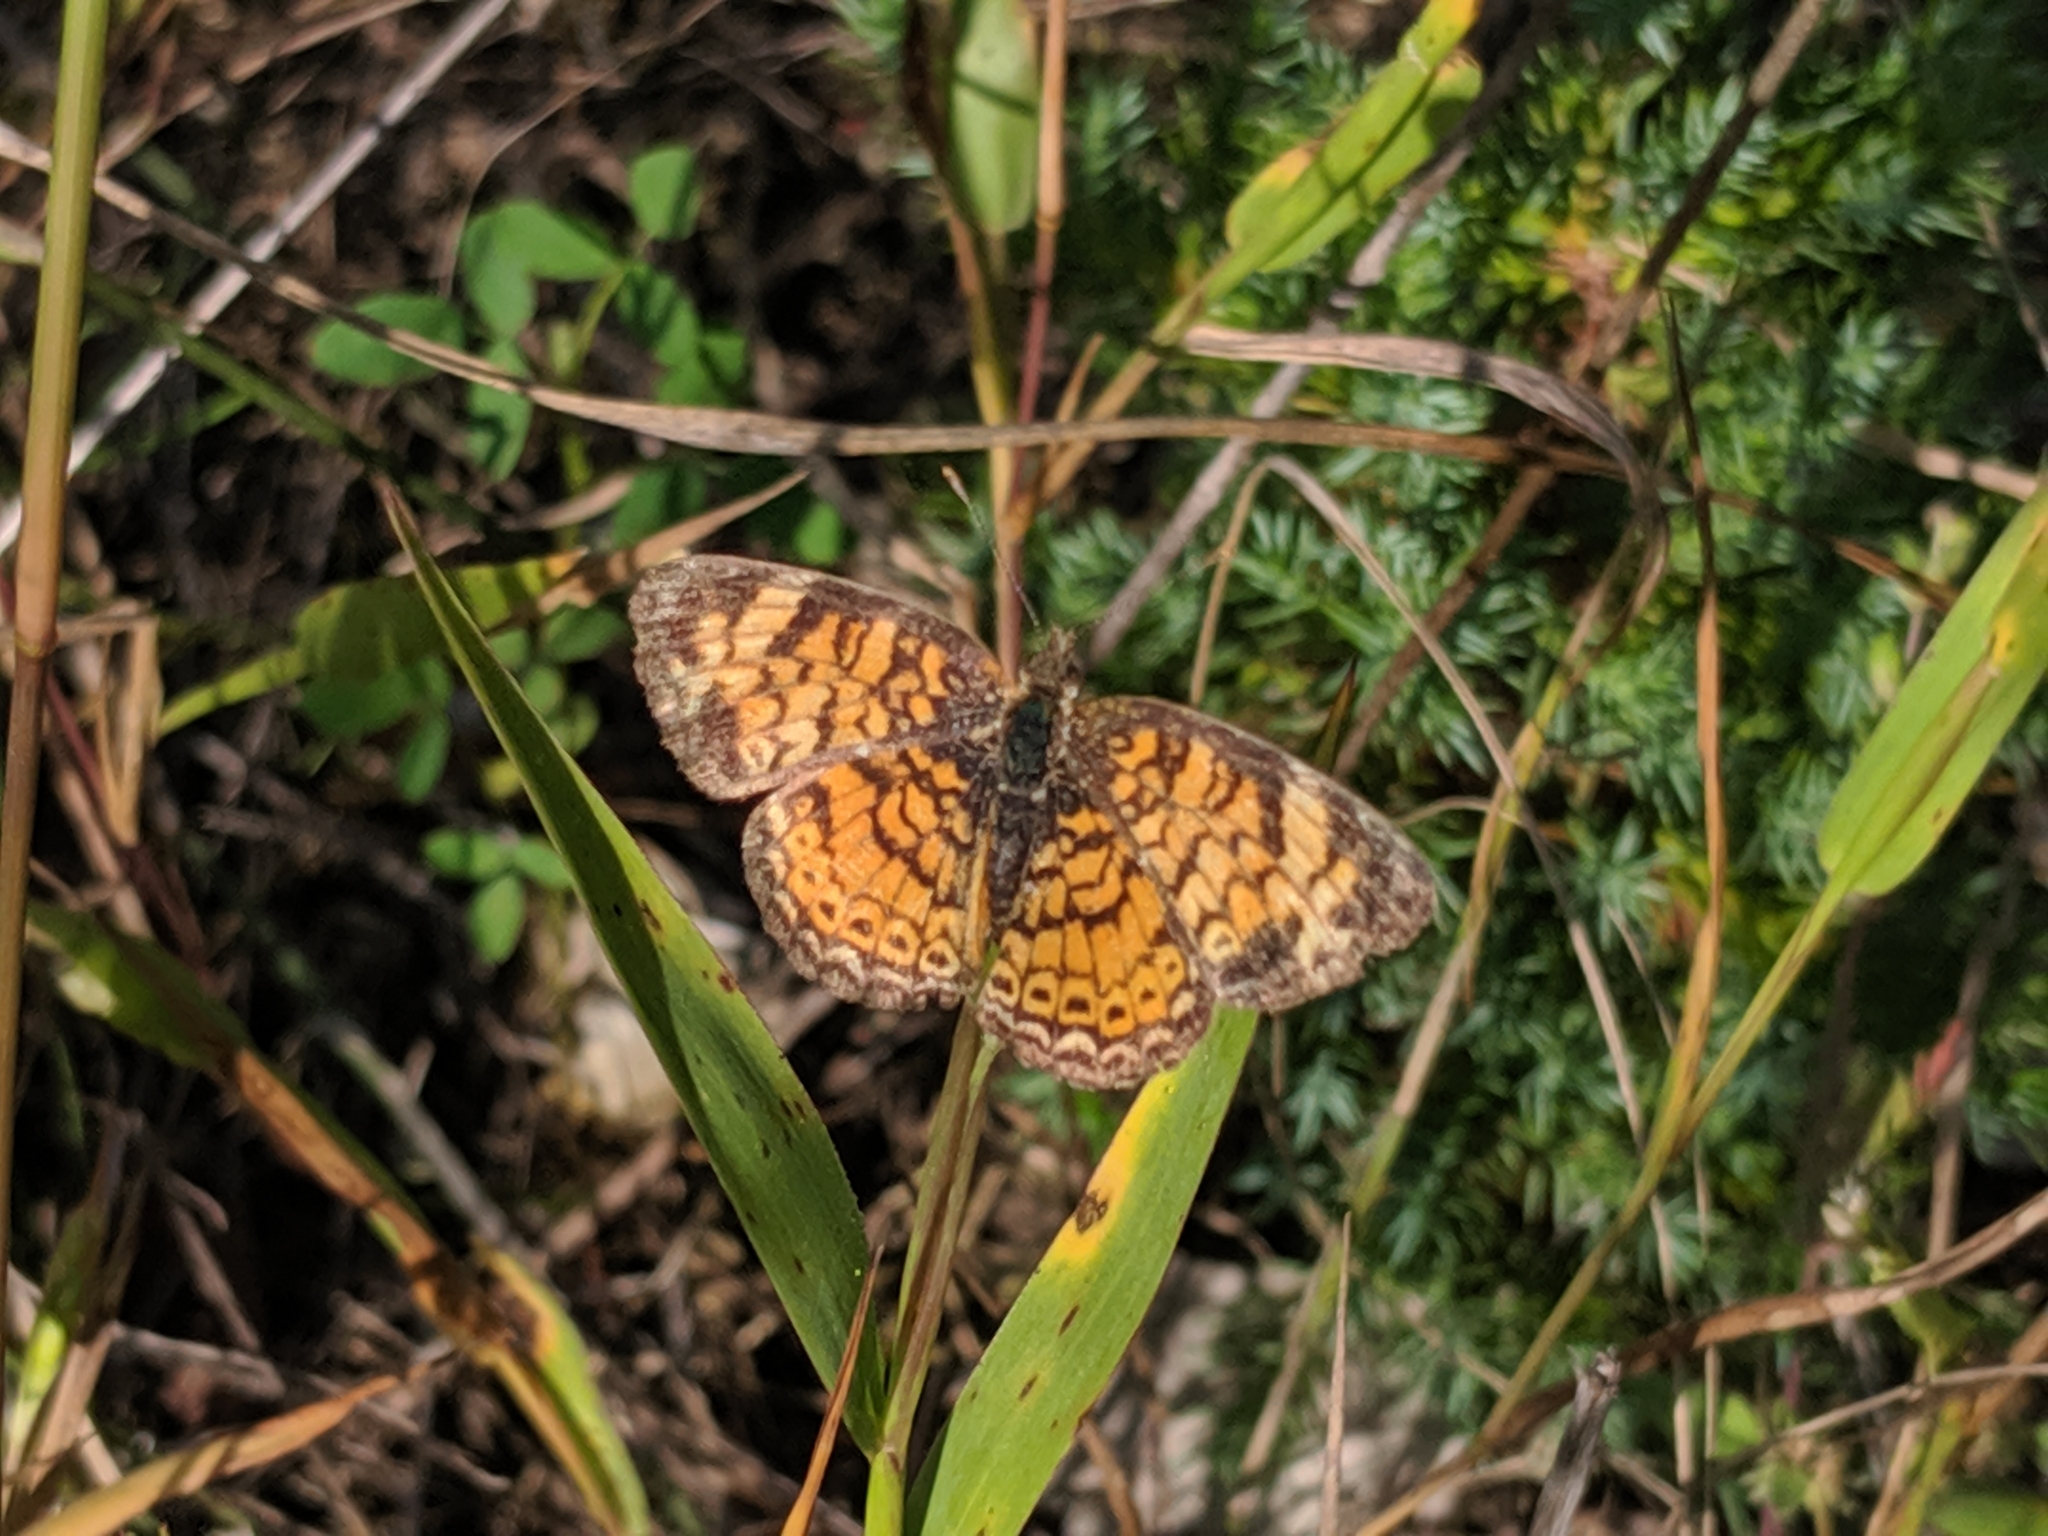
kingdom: Animalia
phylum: Arthropoda
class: Insecta
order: Lepidoptera
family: Nymphalidae
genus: Phyciodes
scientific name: Phyciodes tharos
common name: Pearl crescent
